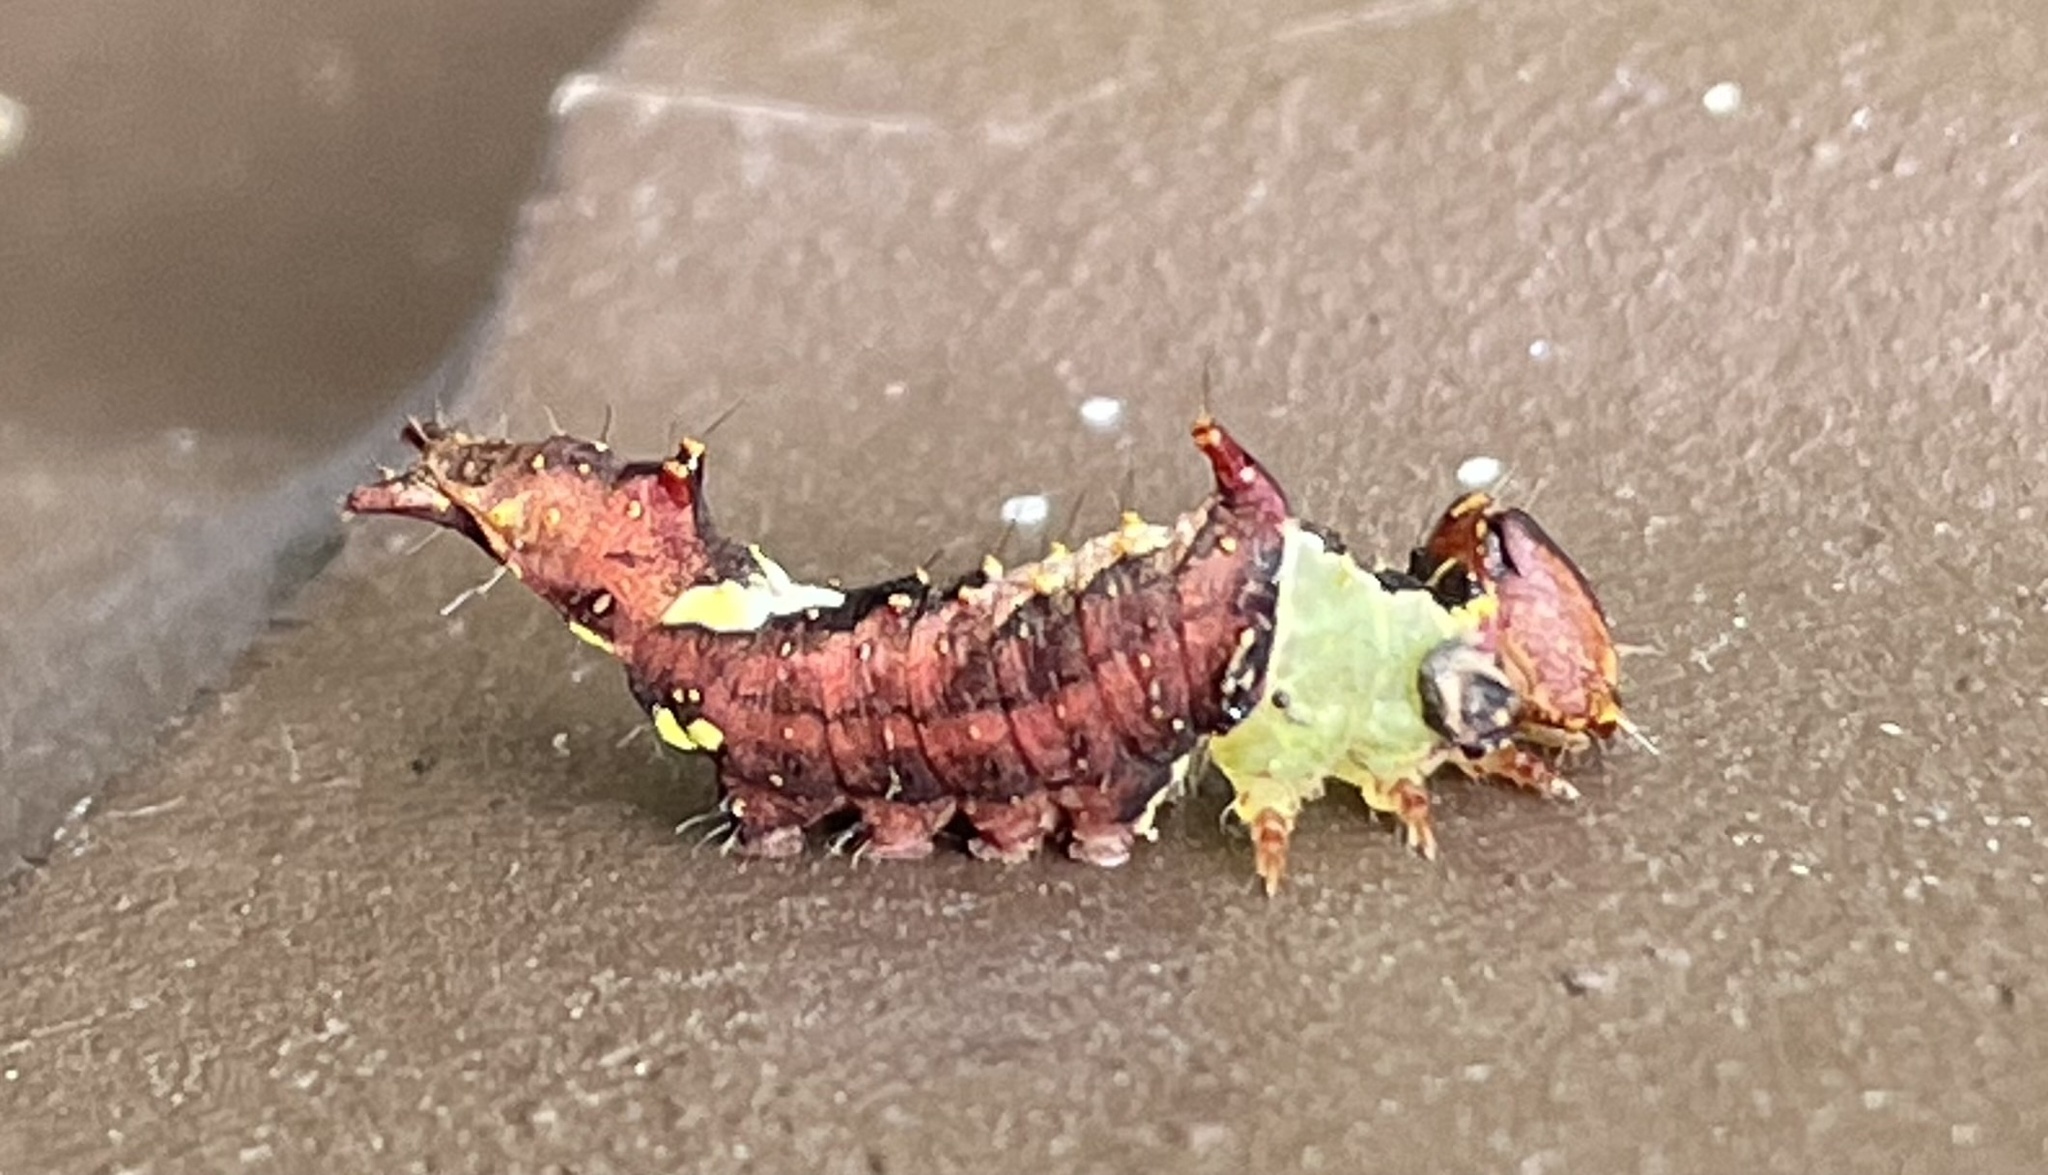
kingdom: Animalia
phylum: Arthropoda
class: Insecta
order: Lepidoptera
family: Notodontidae
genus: Schizura
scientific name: Schizura
